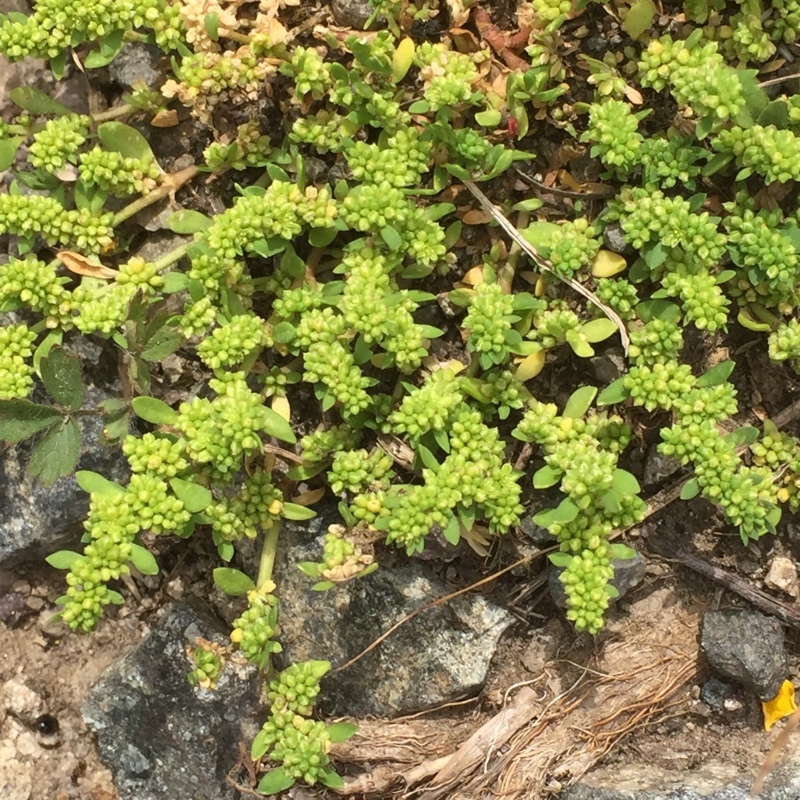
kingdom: Plantae
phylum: Tracheophyta
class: Magnoliopsida
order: Caryophyllales
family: Caryophyllaceae
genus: Herniaria
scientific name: Herniaria glabra
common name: Smooth rupturewort
